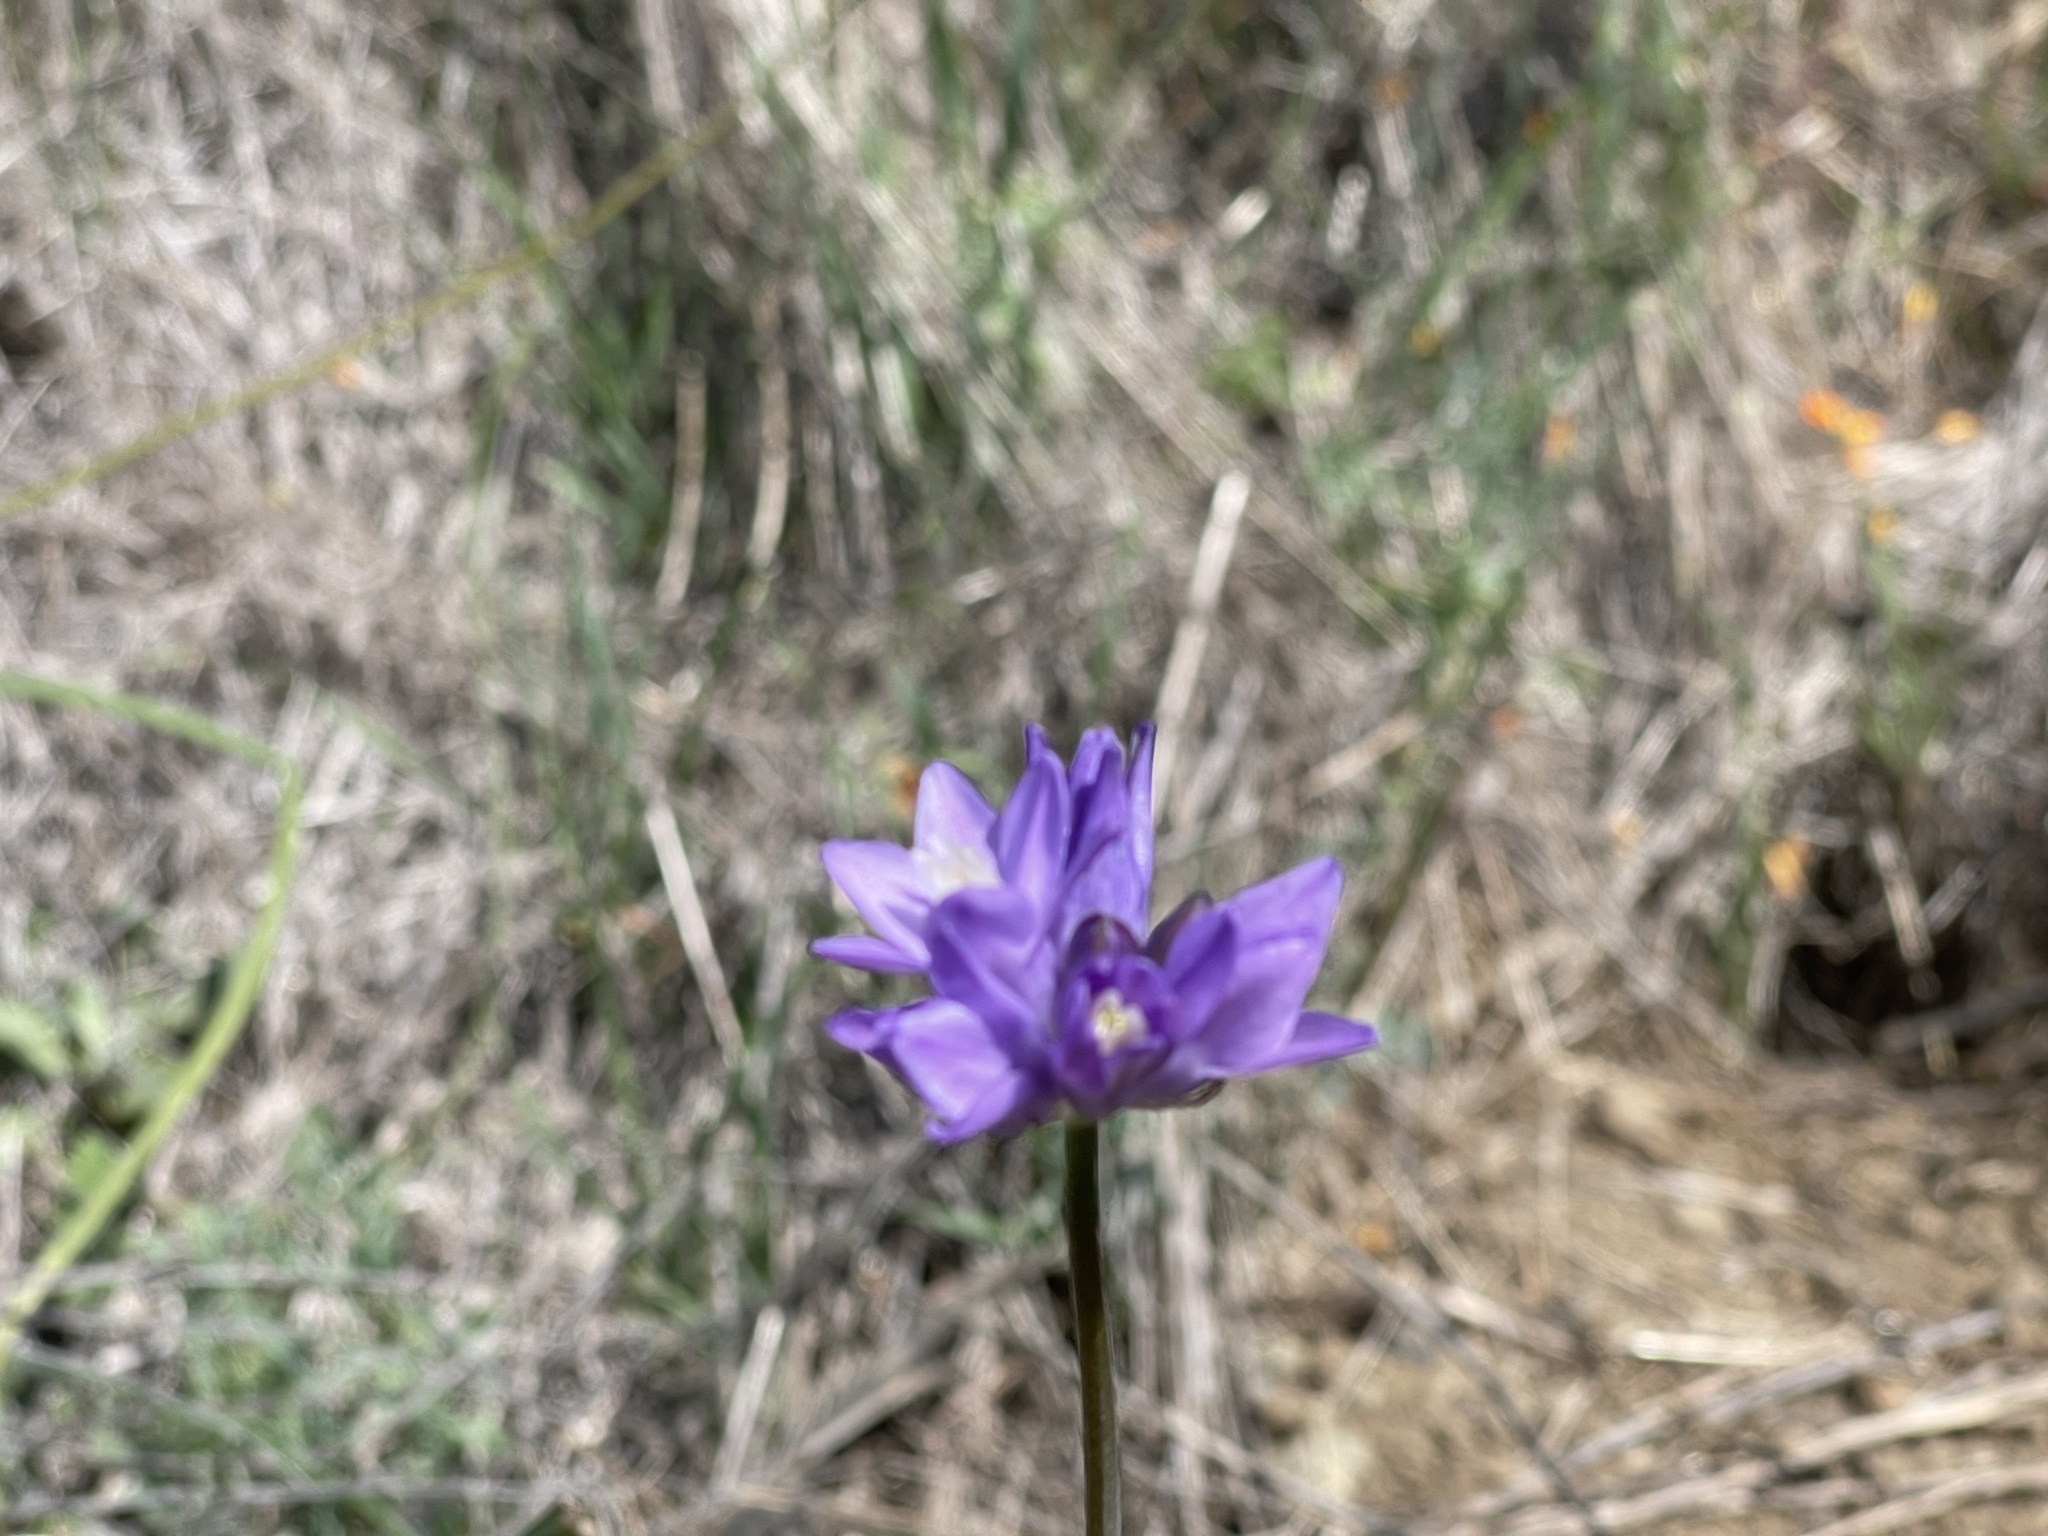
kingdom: Plantae
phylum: Tracheophyta
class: Liliopsida
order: Asparagales
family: Asparagaceae
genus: Dipterostemon
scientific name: Dipterostemon capitatus
